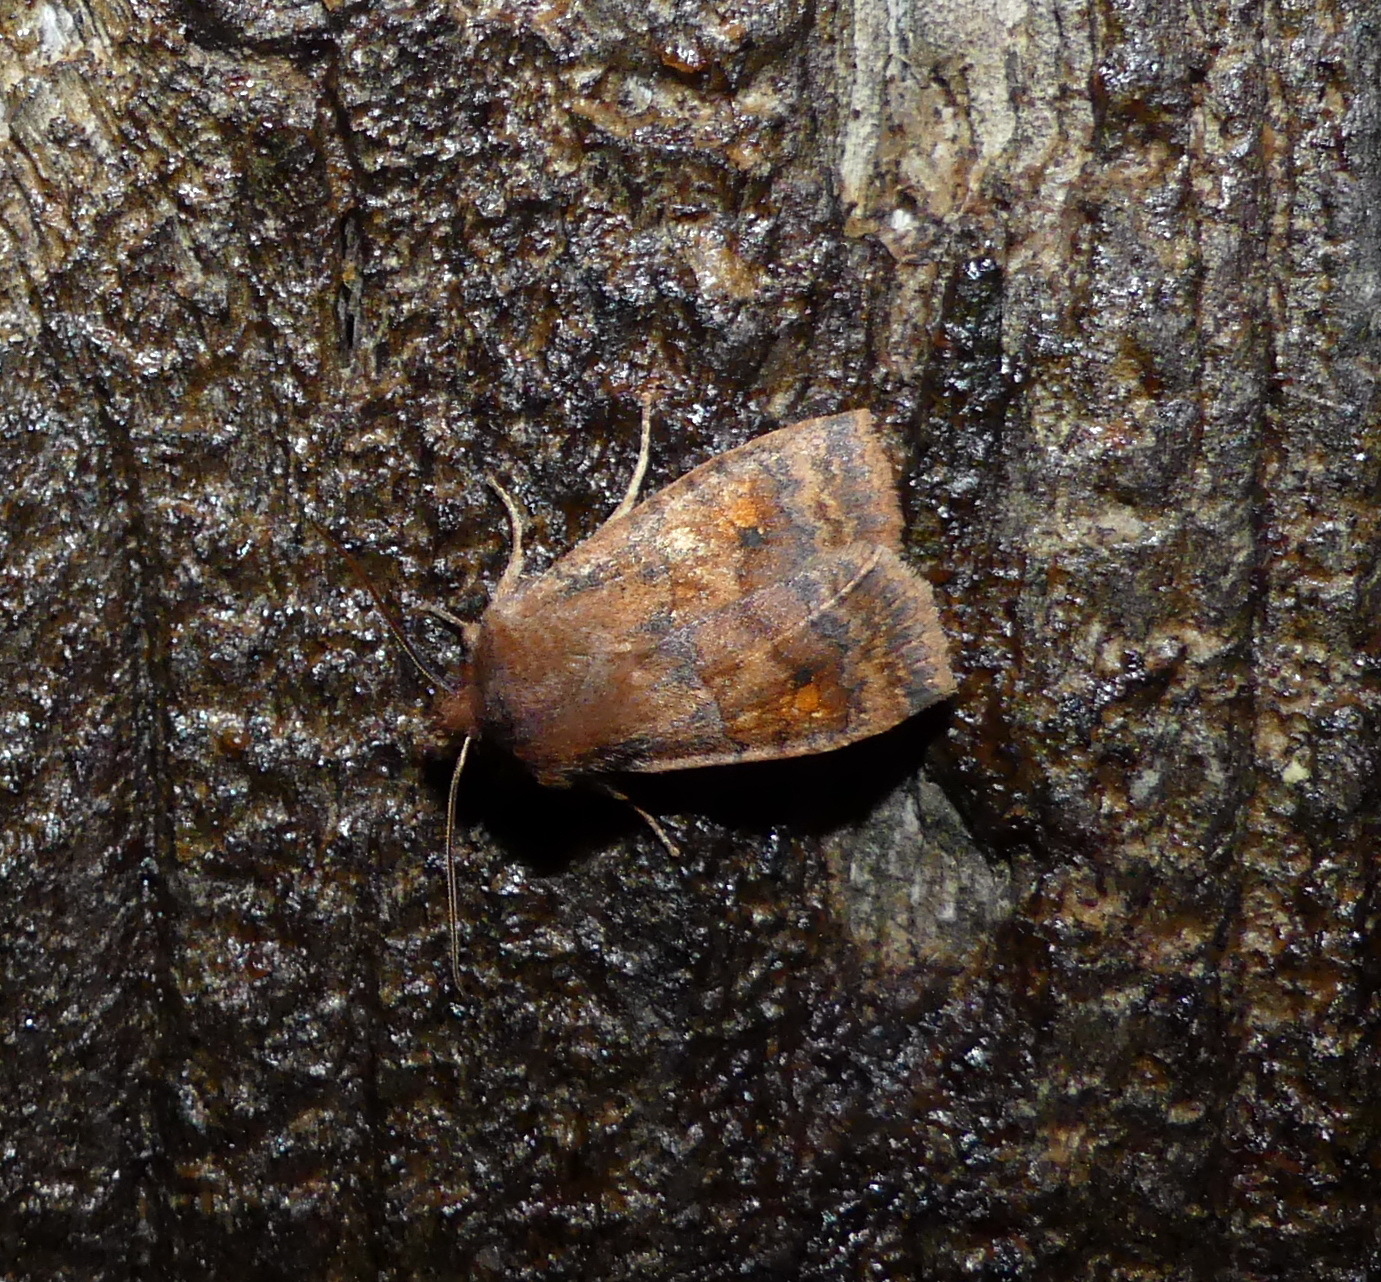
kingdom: Animalia
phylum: Arthropoda
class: Insecta
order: Lepidoptera
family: Noctuidae
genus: Eupsilia
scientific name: Eupsilia tristigmata
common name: Three-spotted sallow
